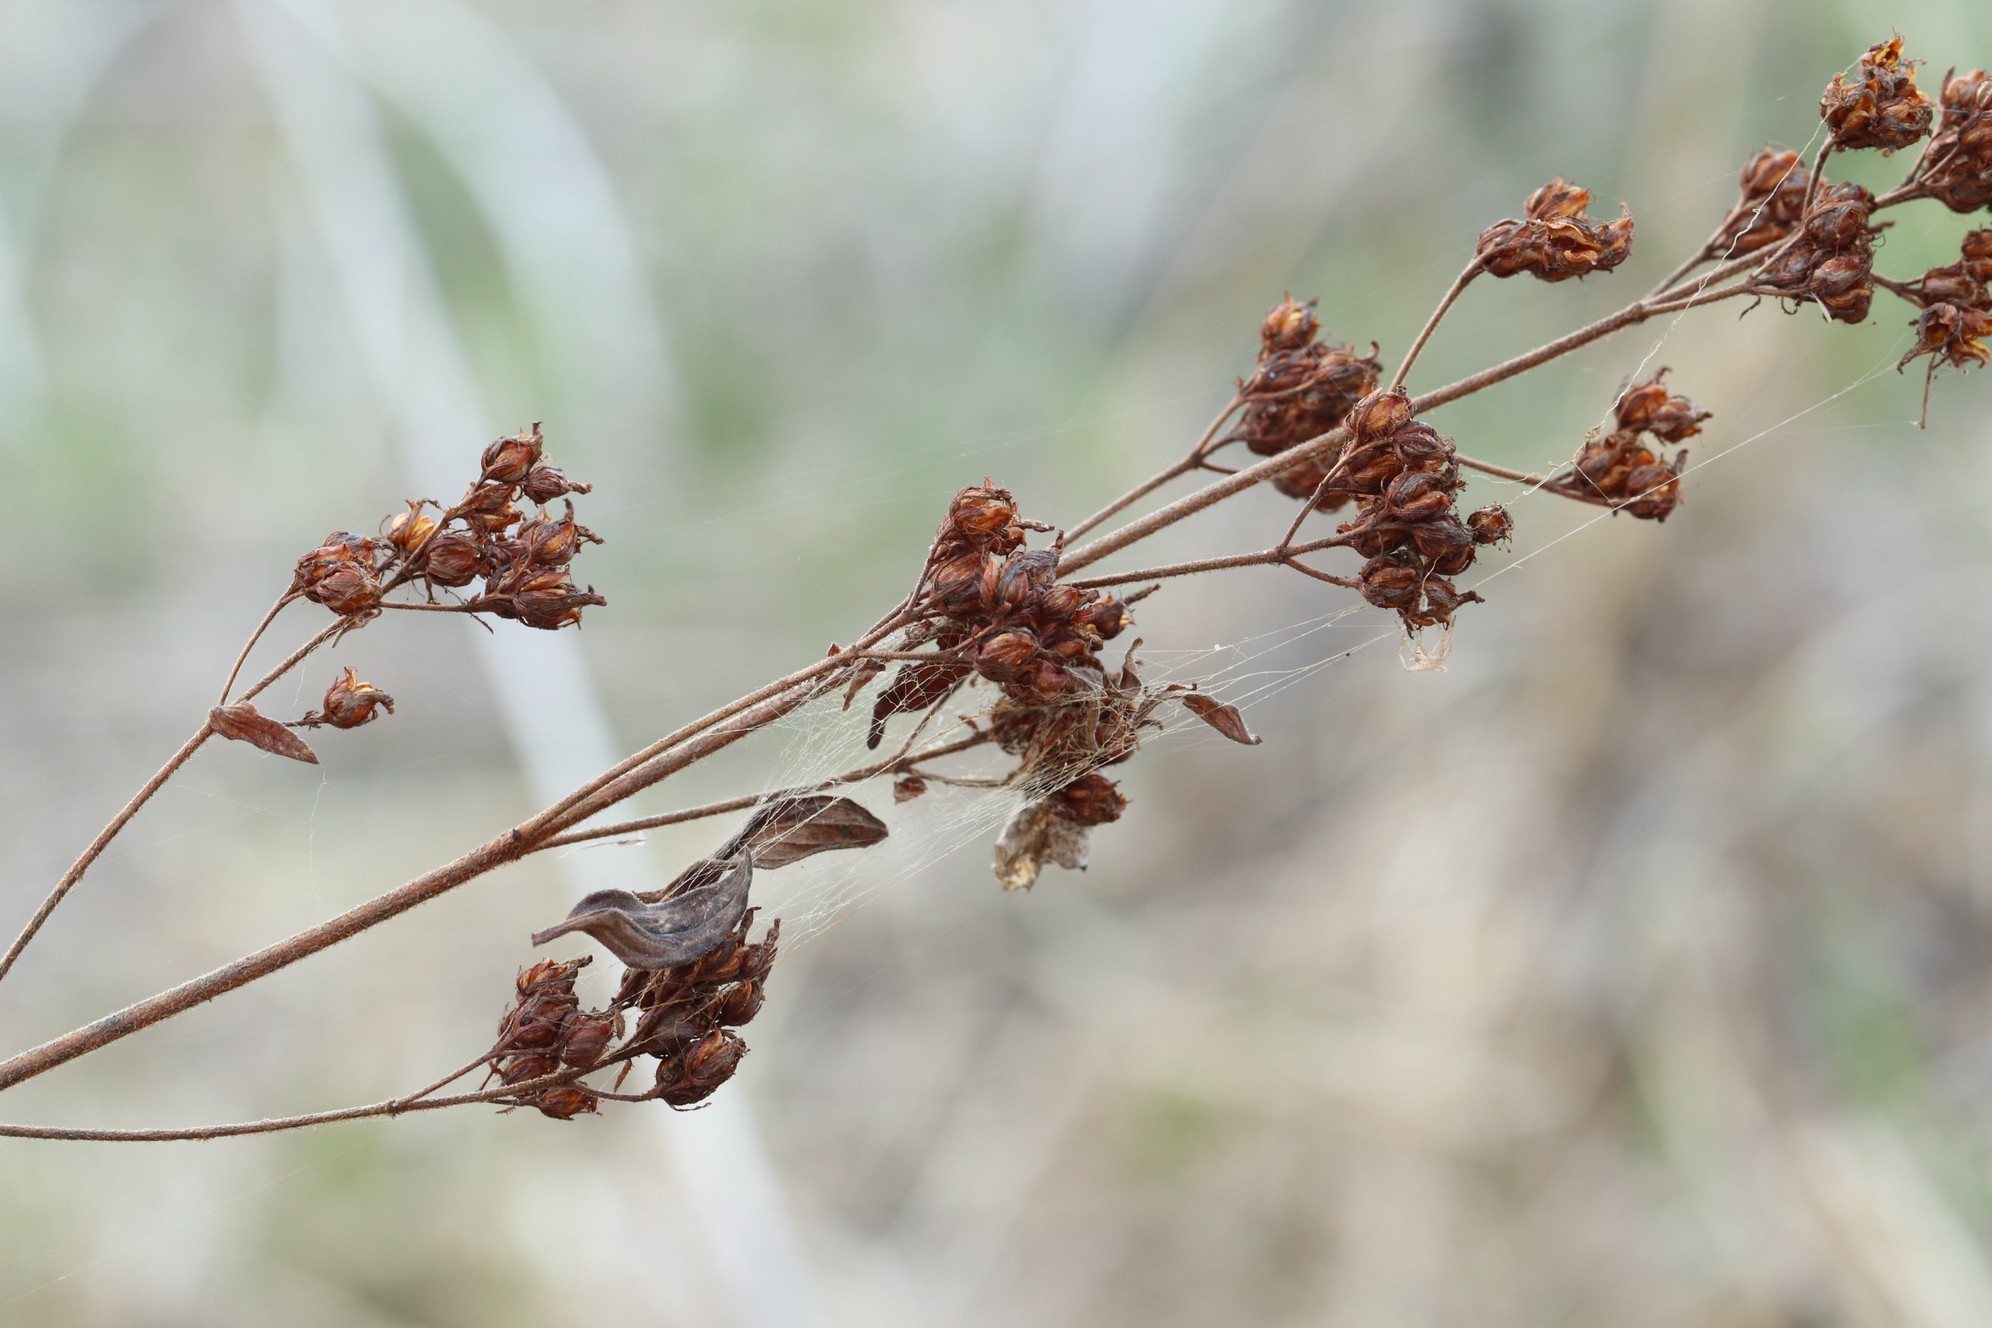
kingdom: Plantae
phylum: Tracheophyta
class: Magnoliopsida
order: Malpighiales
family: Hypericaceae
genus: Hypericum
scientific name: Hypericum hirsutum
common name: Hairy st. john's-wort
